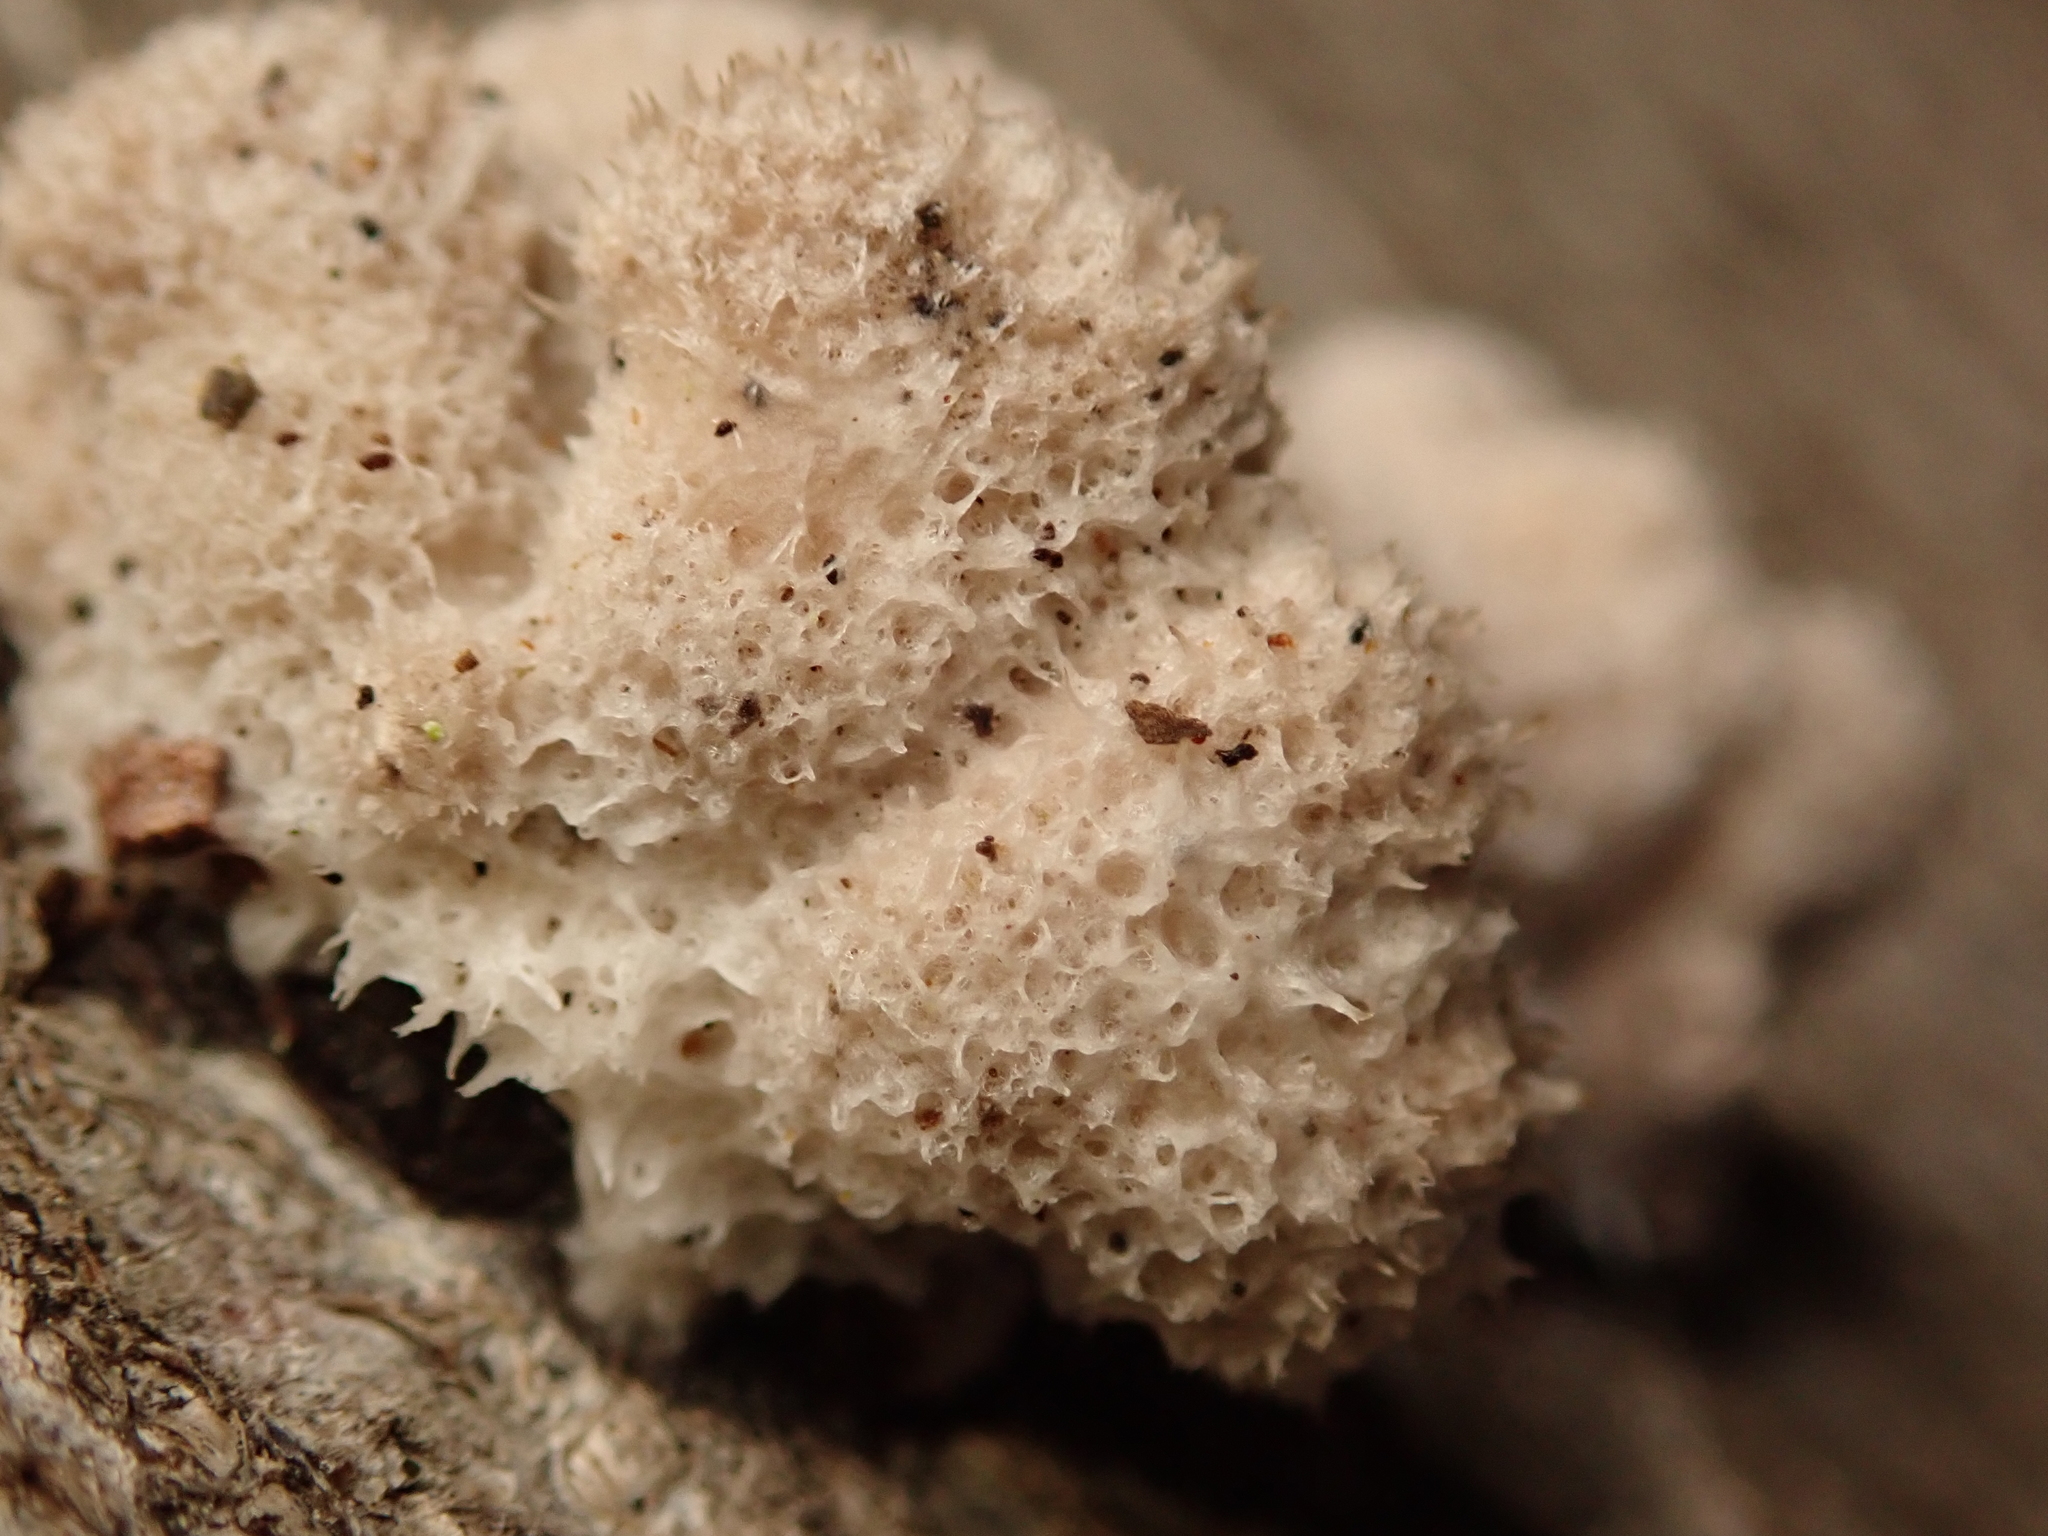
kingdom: Fungi
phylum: Basidiomycota
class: Agaricomycetes
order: Agaricales
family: Schizophyllaceae
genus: Schizophyllum
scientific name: Schizophyllum commune
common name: Common porecrust
